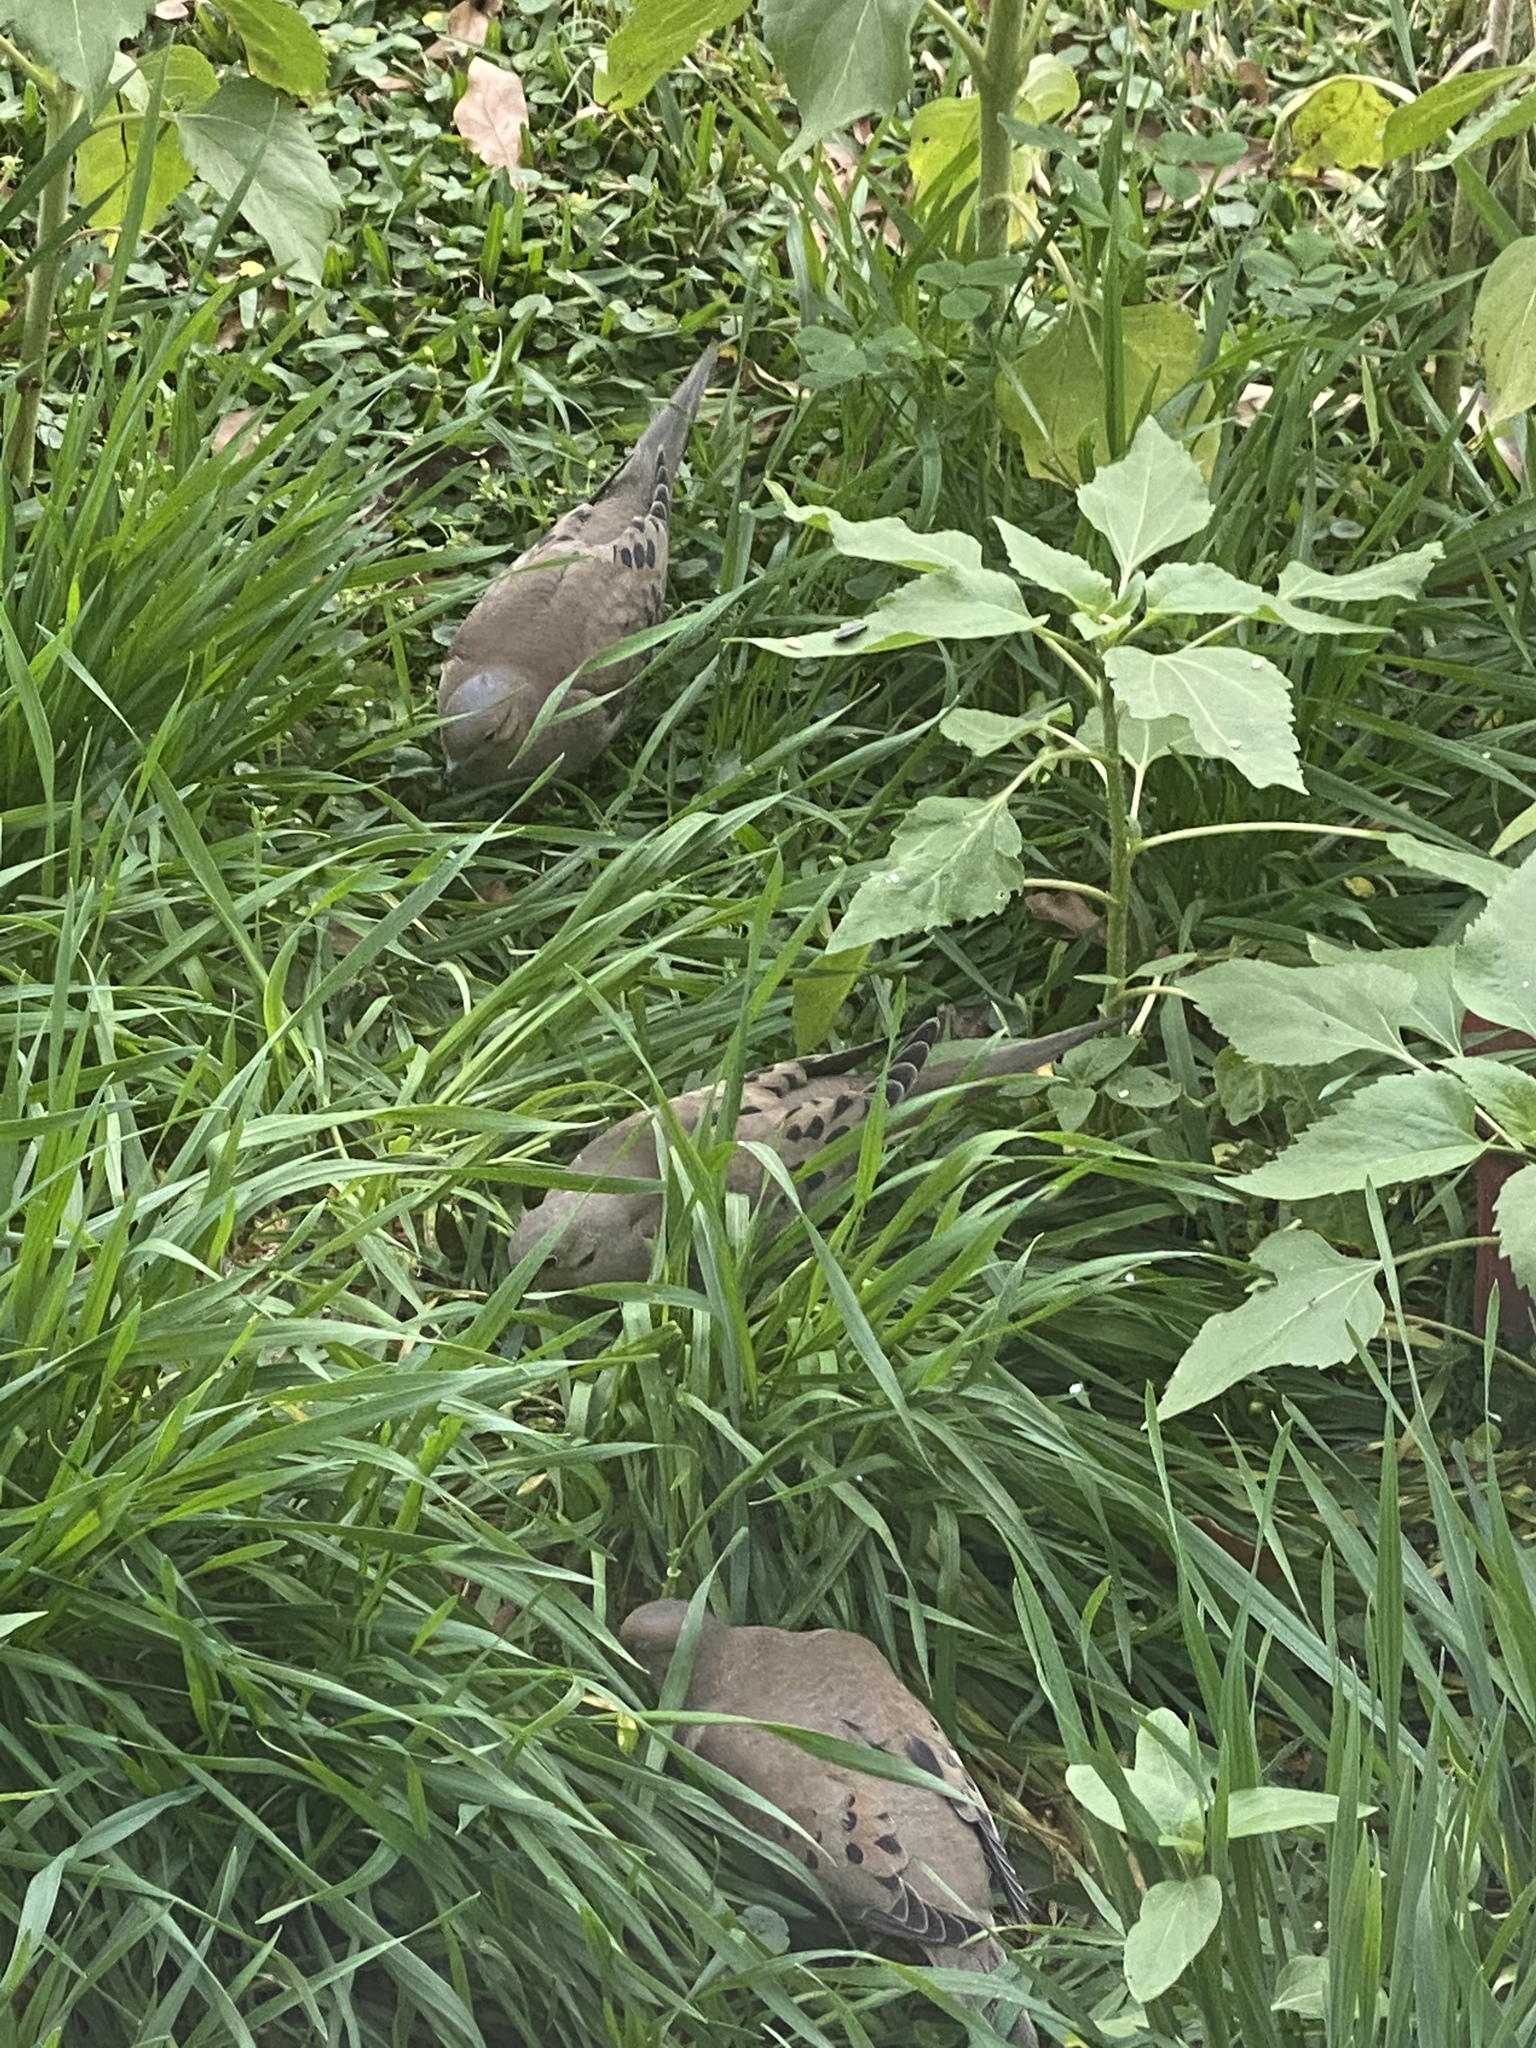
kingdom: Animalia
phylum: Chordata
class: Aves
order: Columbiformes
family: Columbidae
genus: Zenaida
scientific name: Zenaida macroura
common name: Mourning dove
